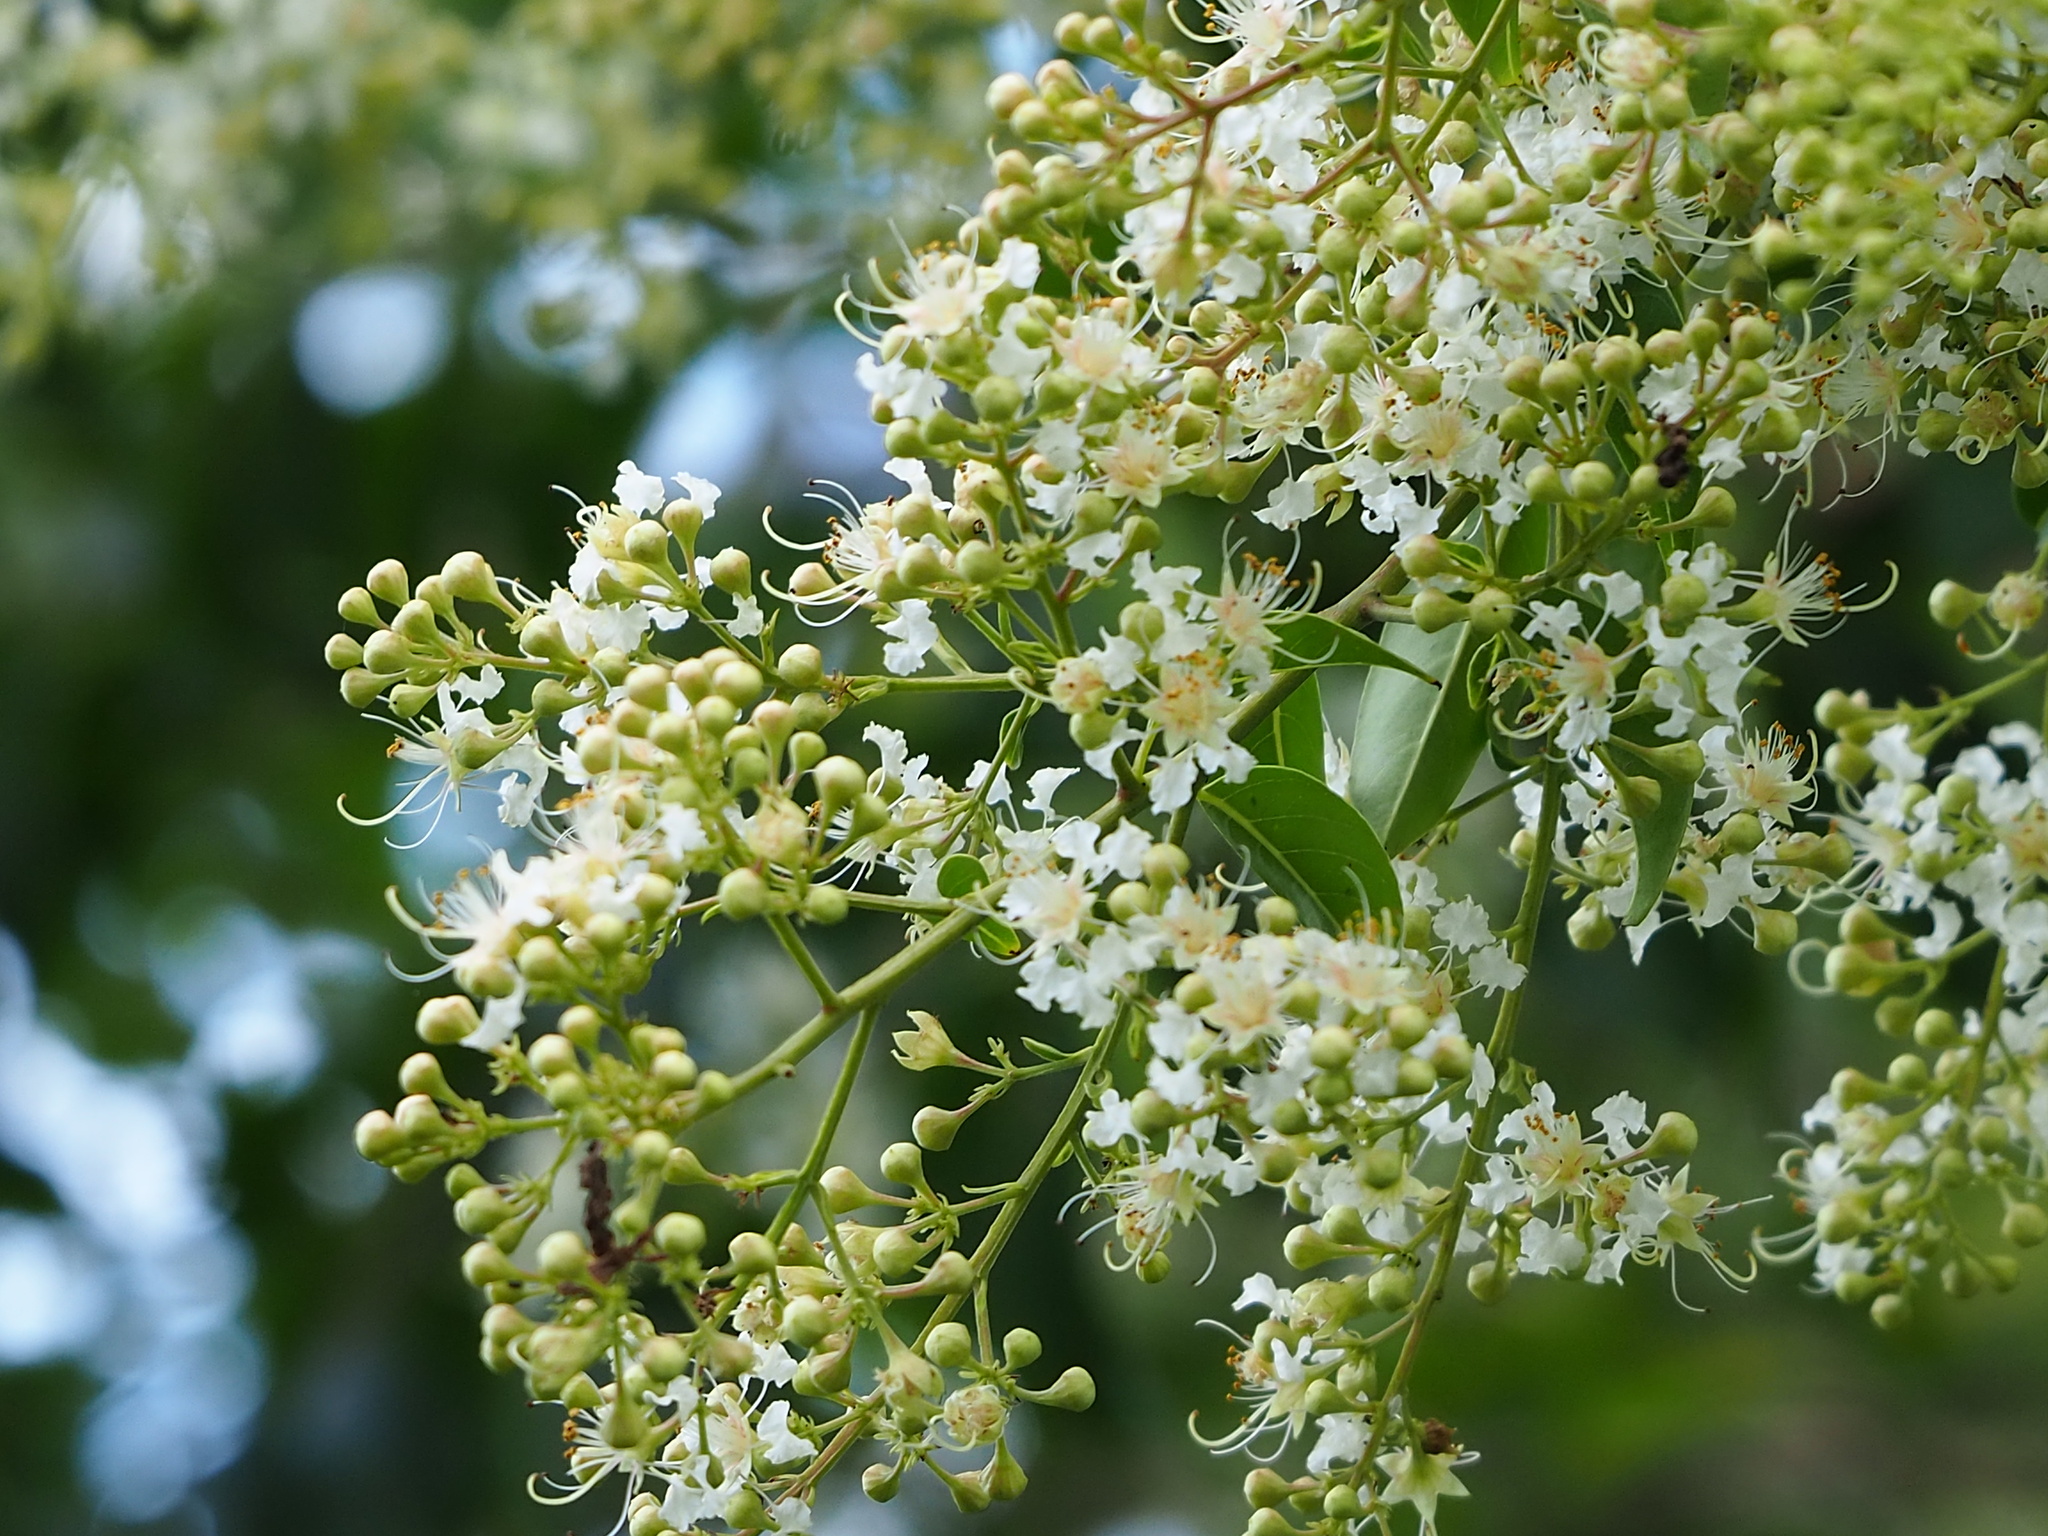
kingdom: Plantae
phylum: Tracheophyta
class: Magnoliopsida
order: Myrtales
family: Lythraceae
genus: Lagerstroemia
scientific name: Lagerstroemia subcostata
